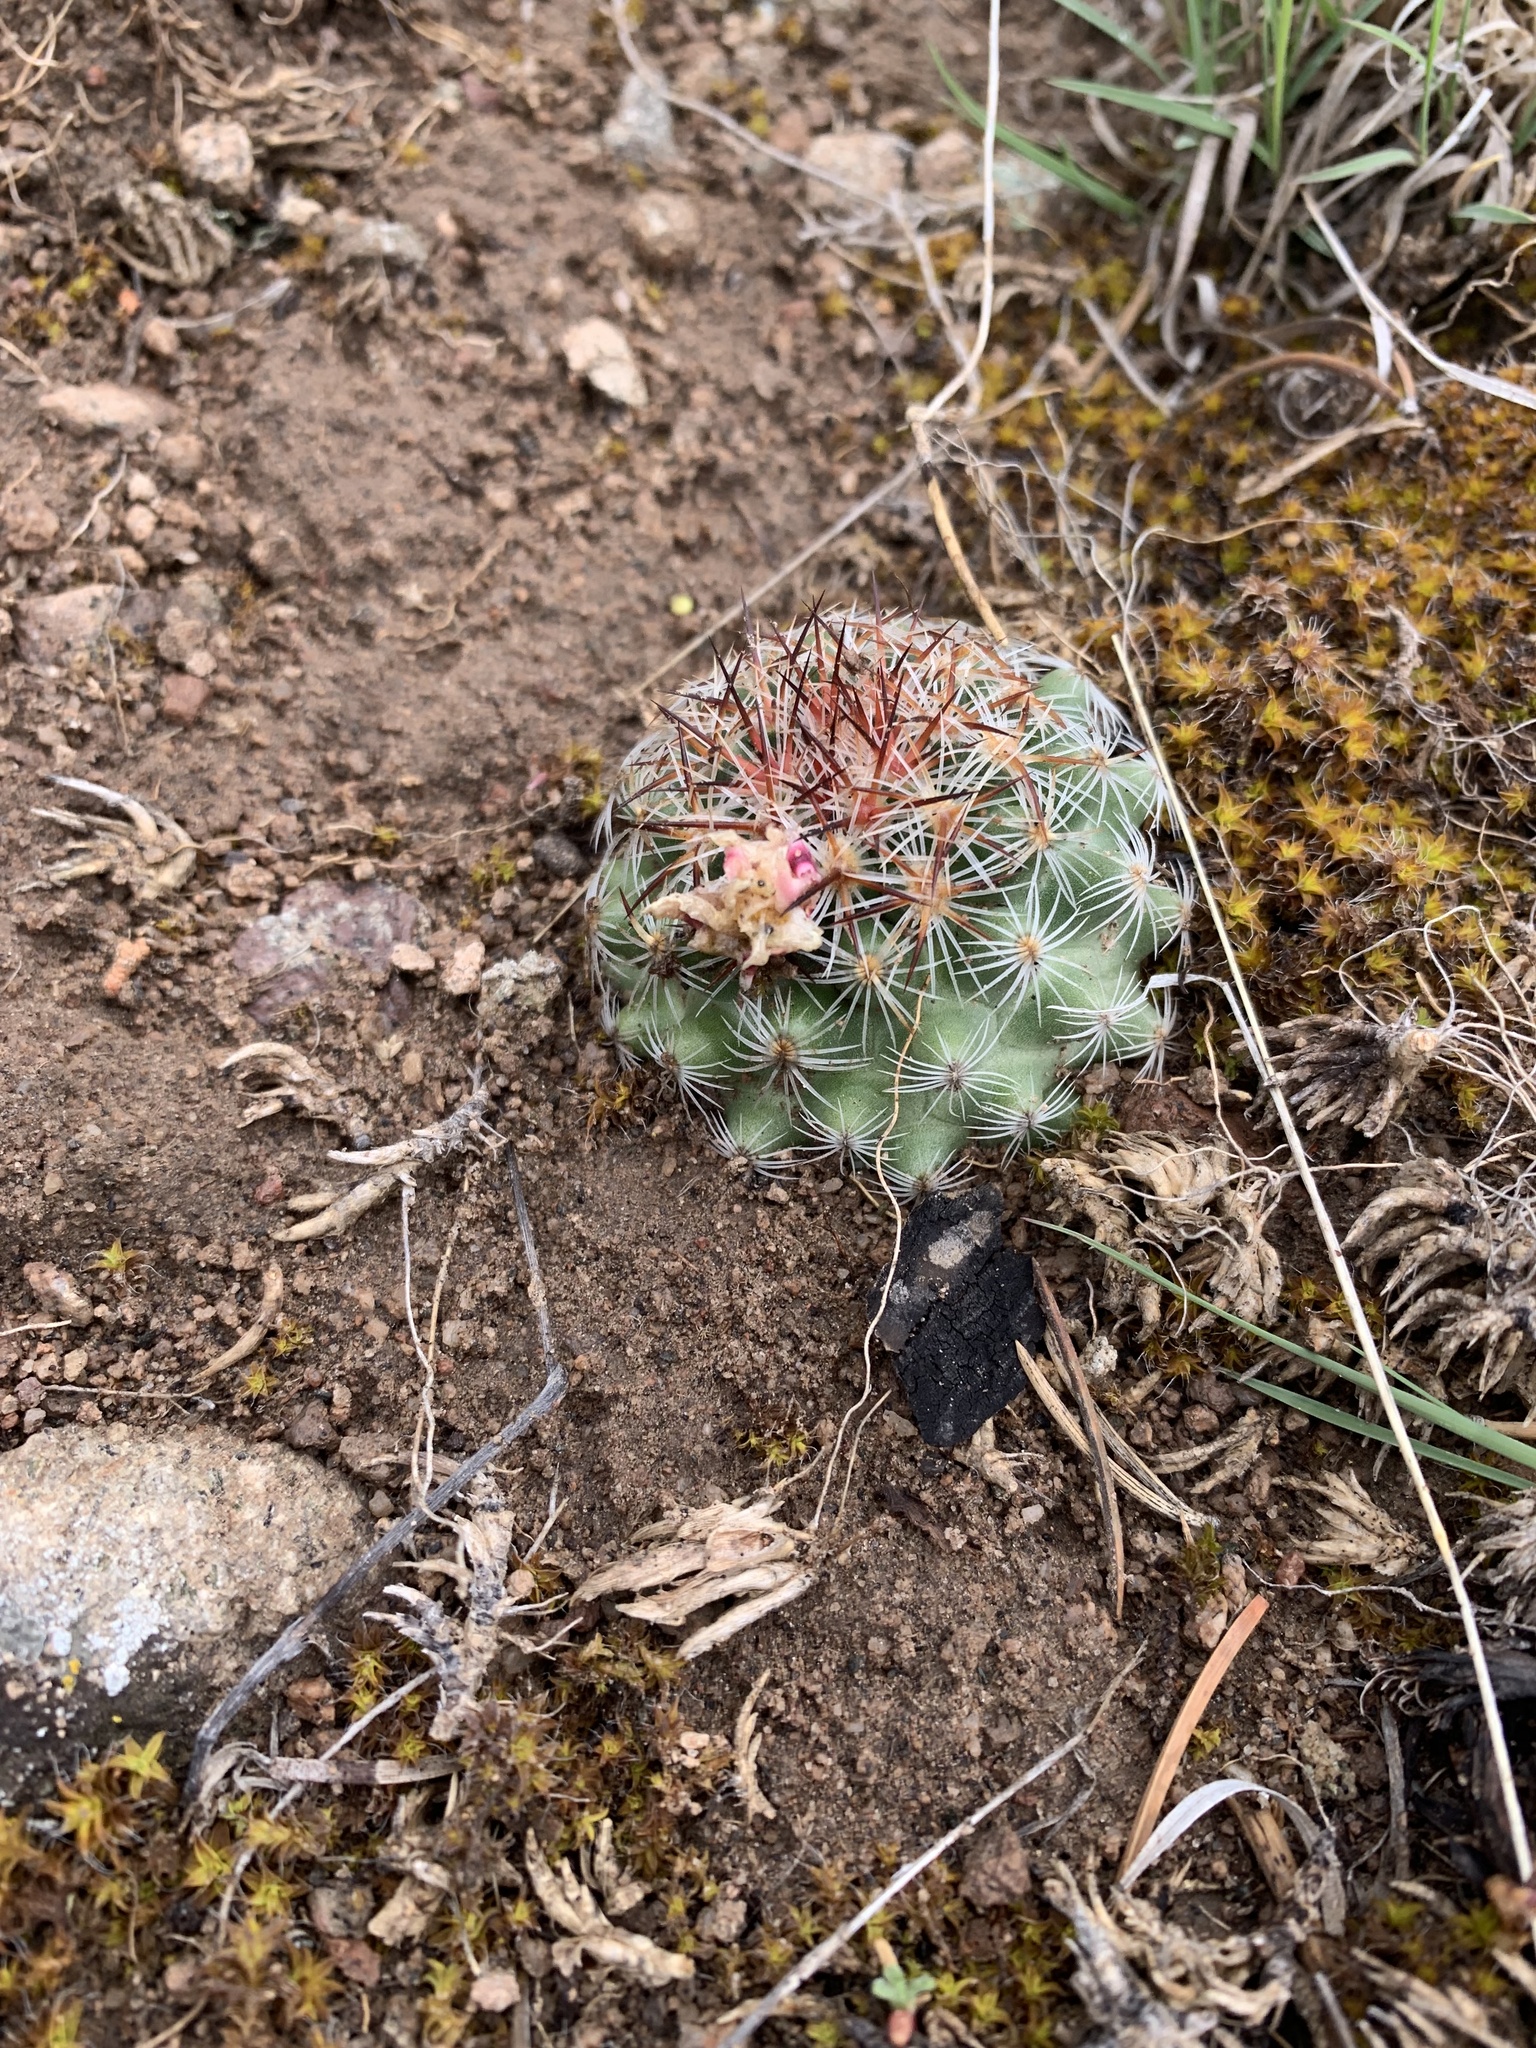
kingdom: Plantae
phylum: Tracheophyta
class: Magnoliopsida
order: Caryophyllales
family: Cactaceae
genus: Pediocactus
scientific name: Pediocactus simpsonii
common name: Simpson's hedgehog cactus
